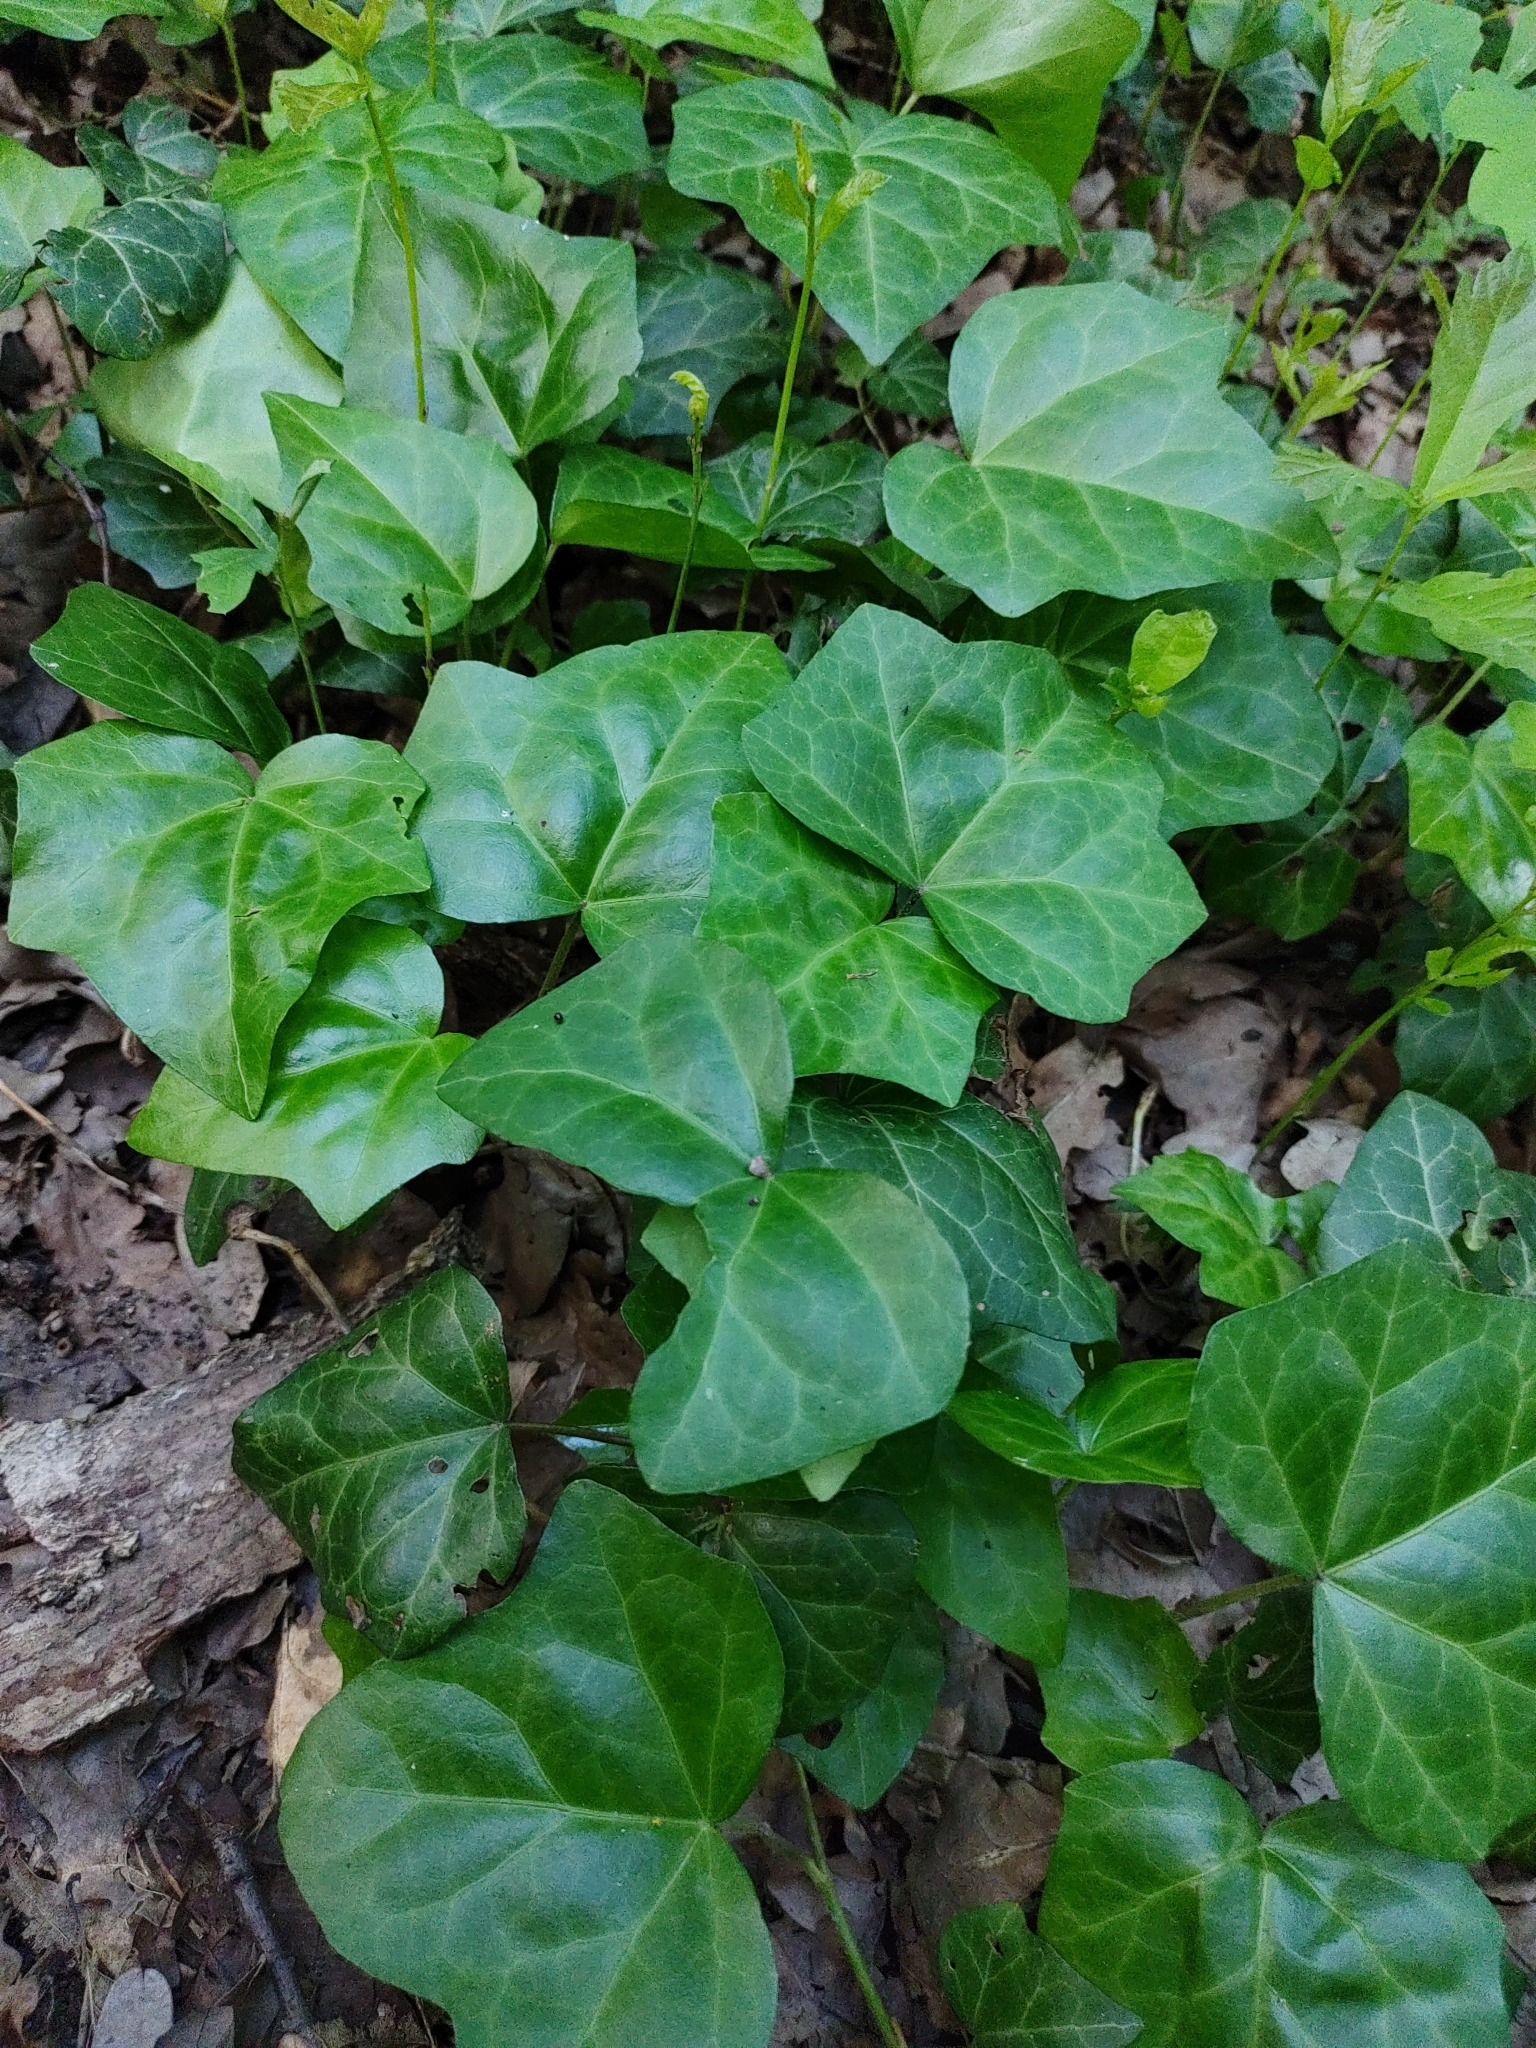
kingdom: Plantae
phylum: Tracheophyta
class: Magnoliopsida
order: Apiales
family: Araliaceae
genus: Hedera
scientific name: Hedera helix
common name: Ivy
